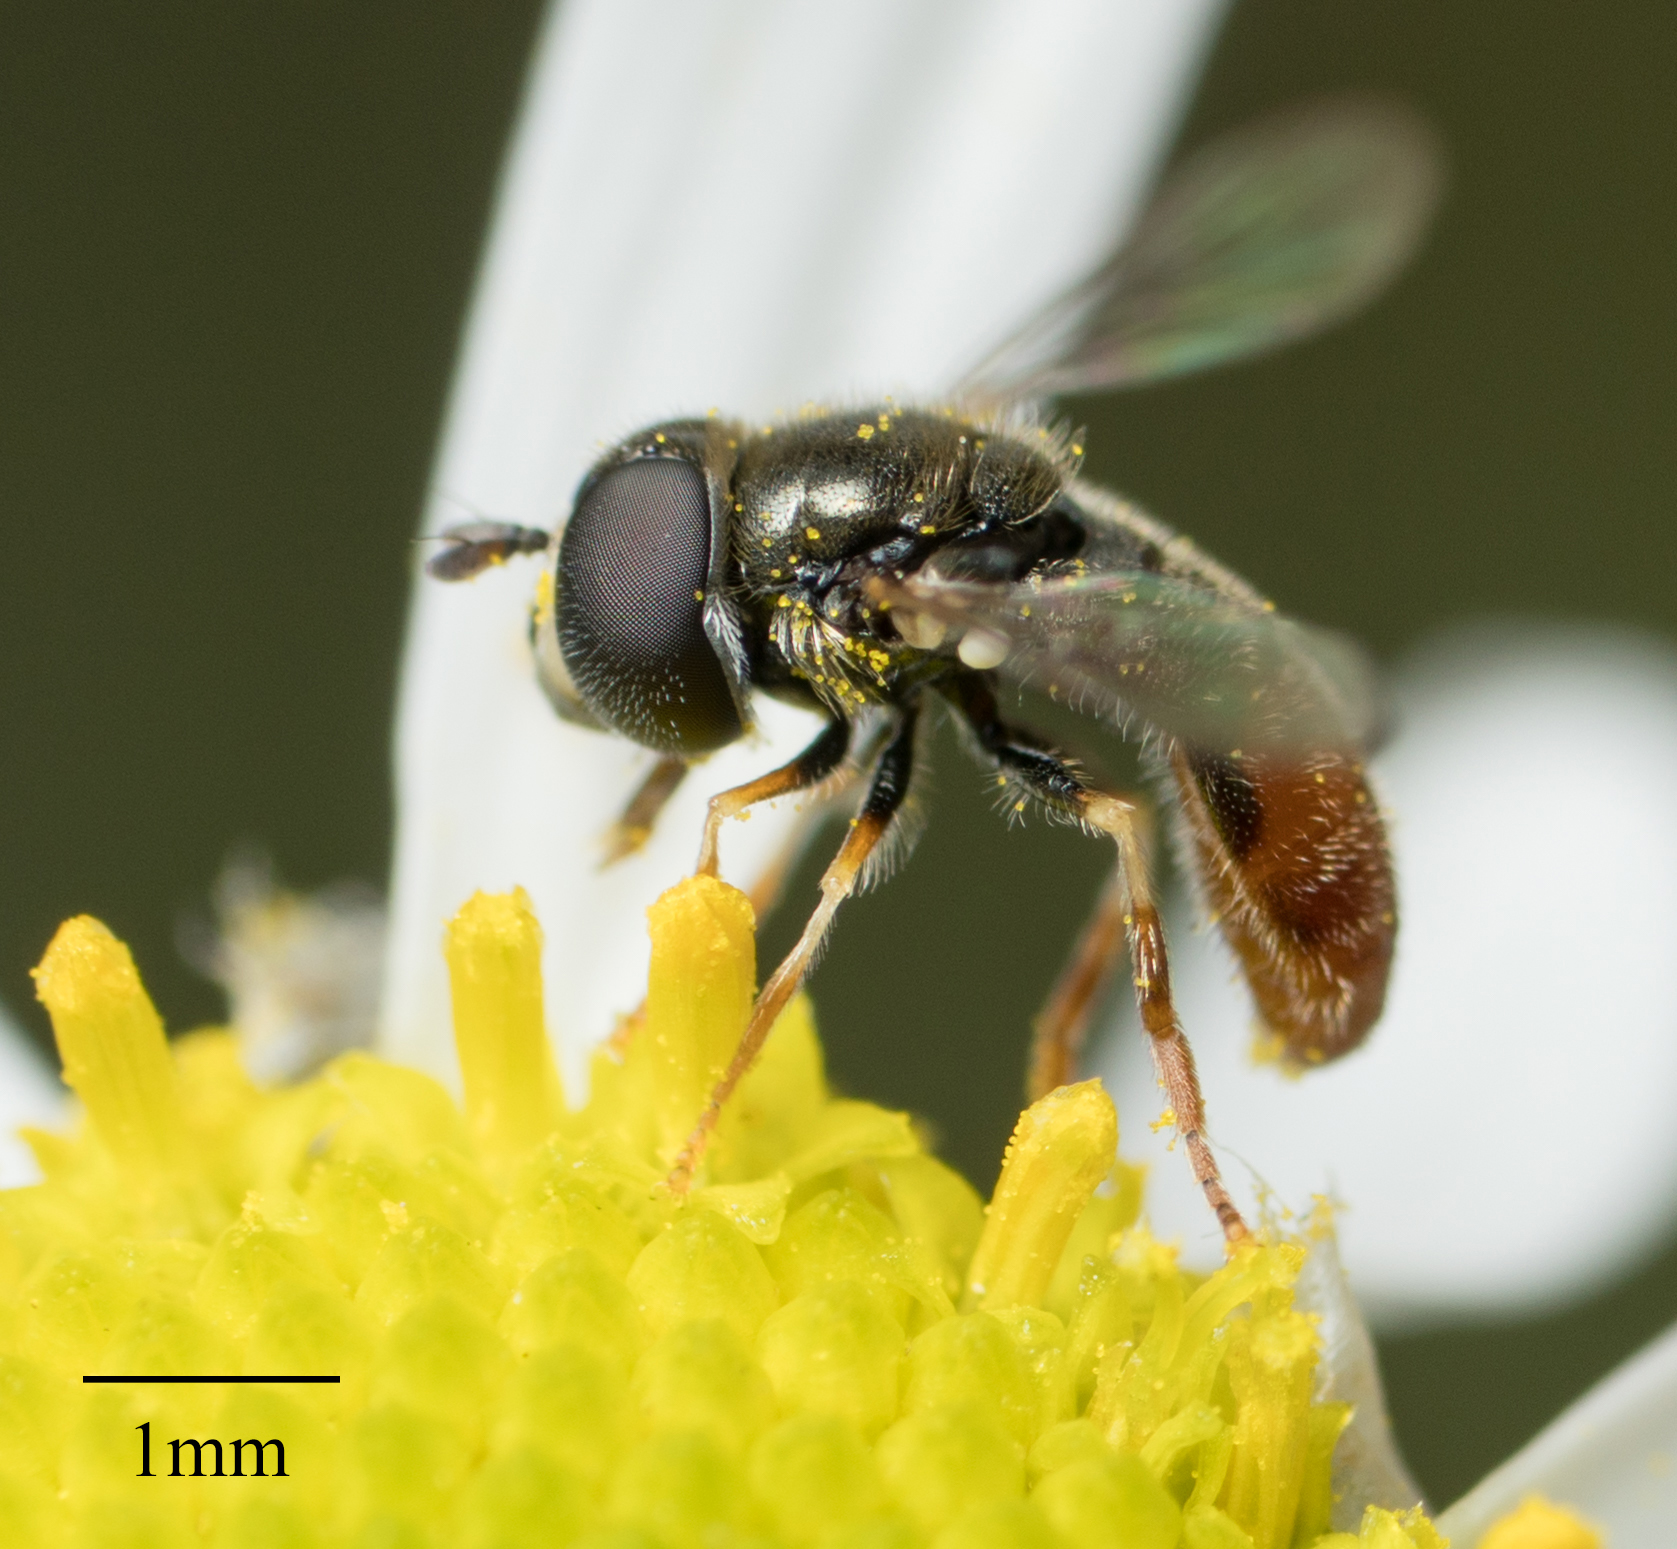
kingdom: Animalia
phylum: Arthropoda
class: Insecta
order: Diptera
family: Syrphidae
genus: Paragus
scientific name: Paragus haemorrhous
